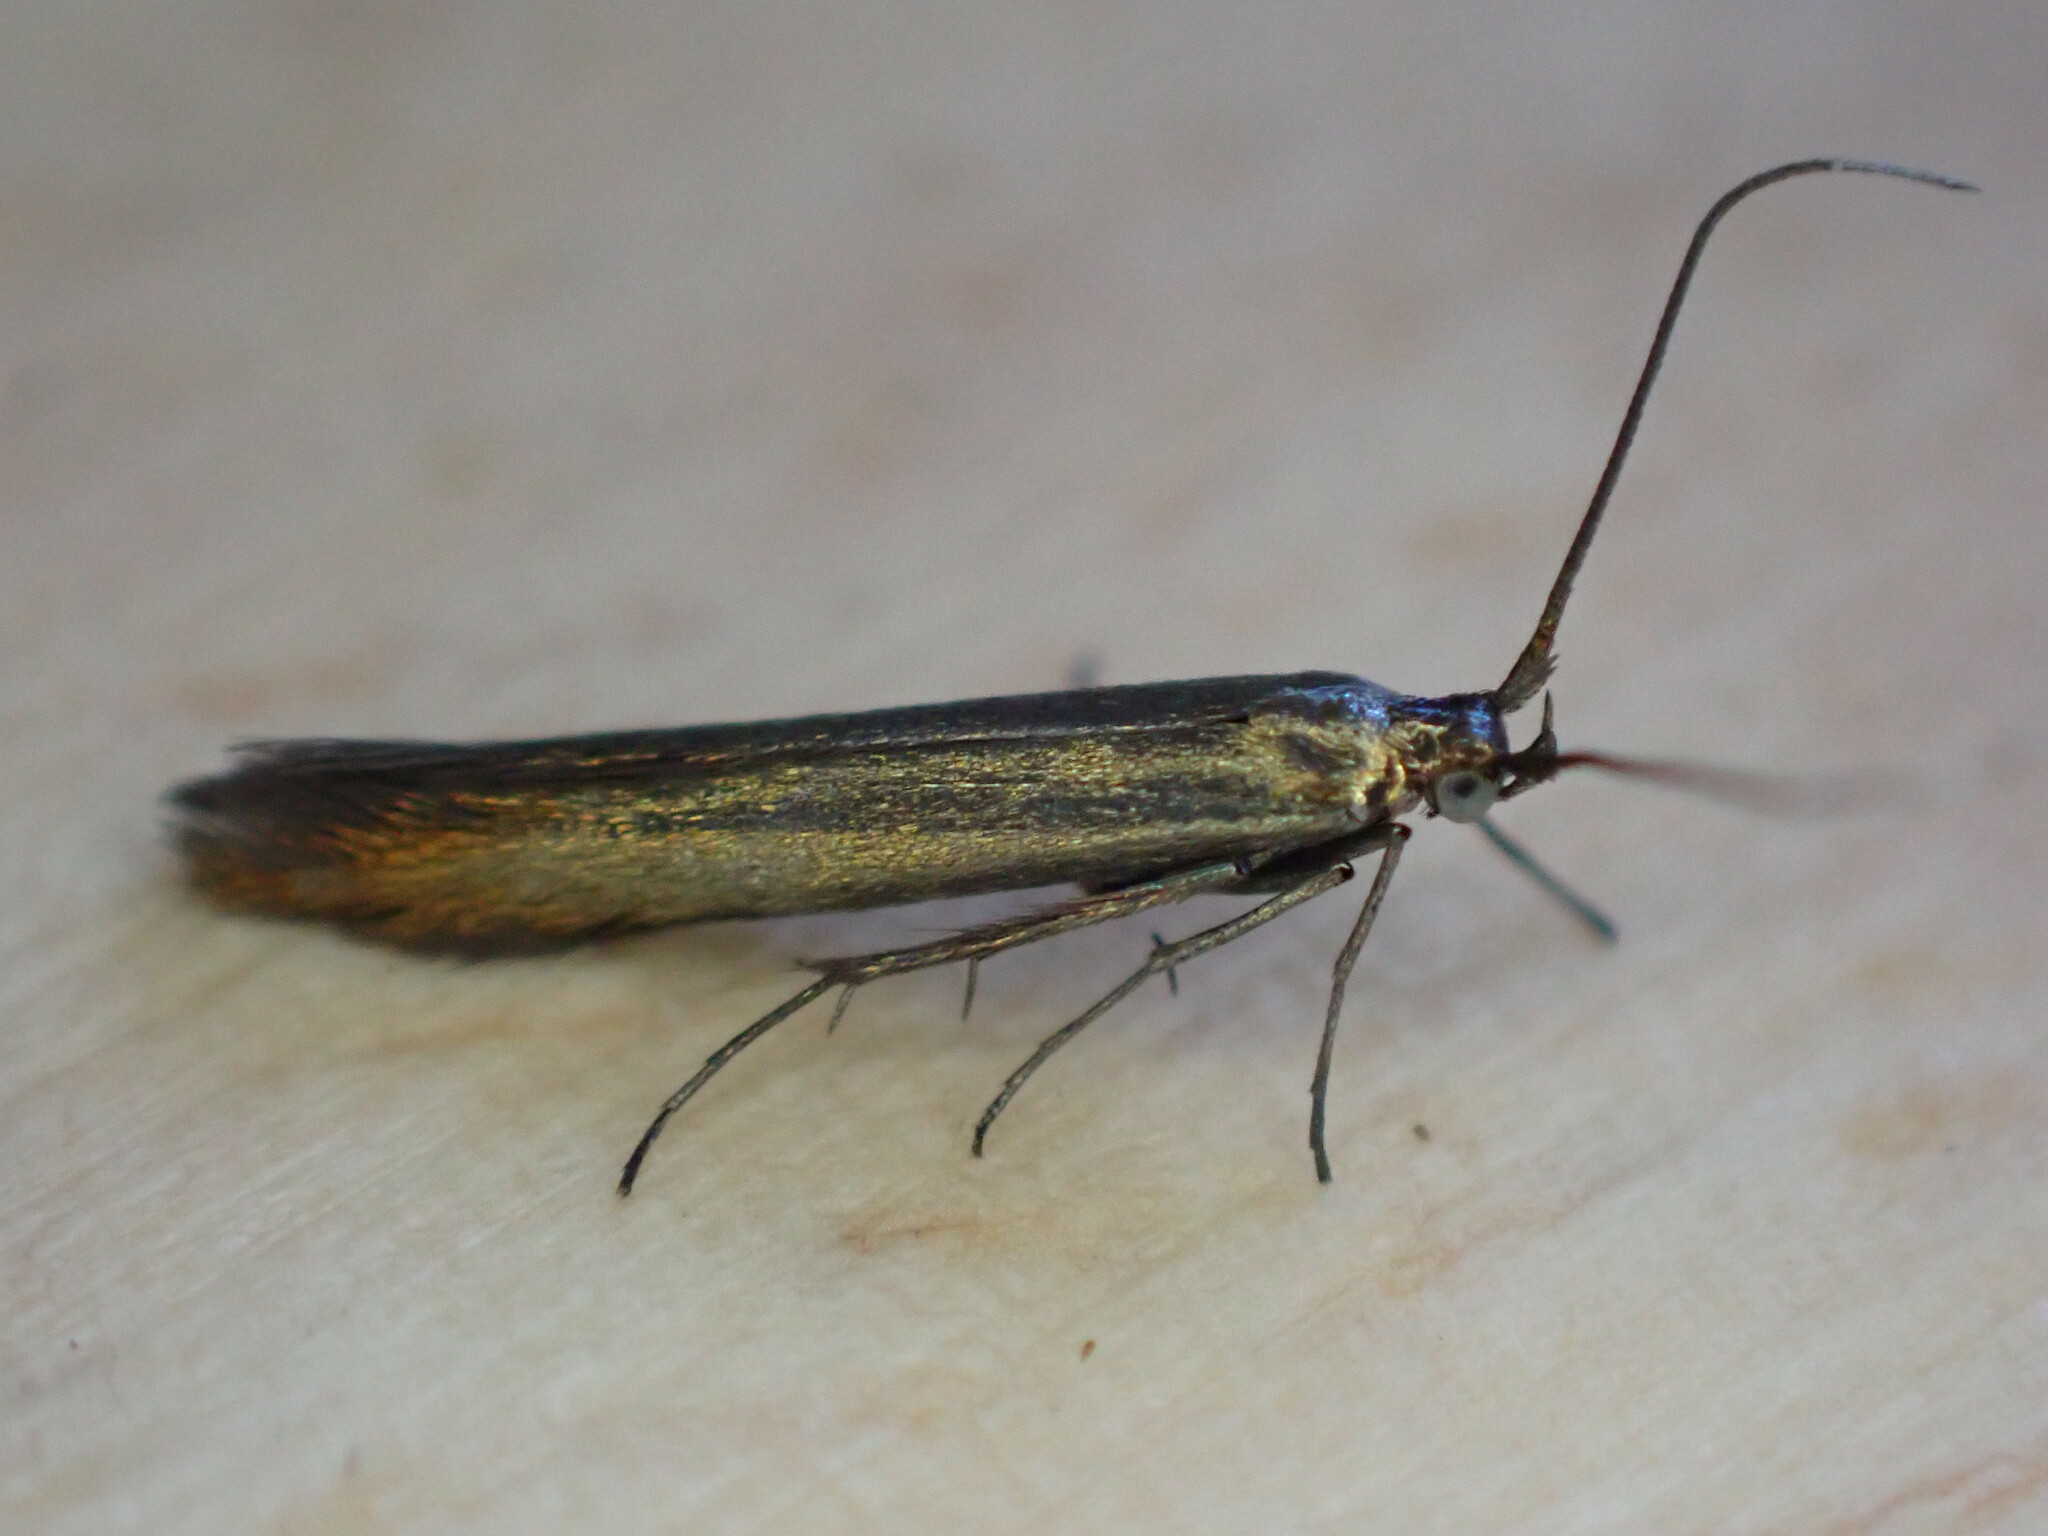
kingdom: Animalia
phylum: Arthropoda
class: Insecta
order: Lepidoptera
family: Coleophoridae
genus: Coleophora
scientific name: Coleophora alcyonipennella
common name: Clover case-bearer
